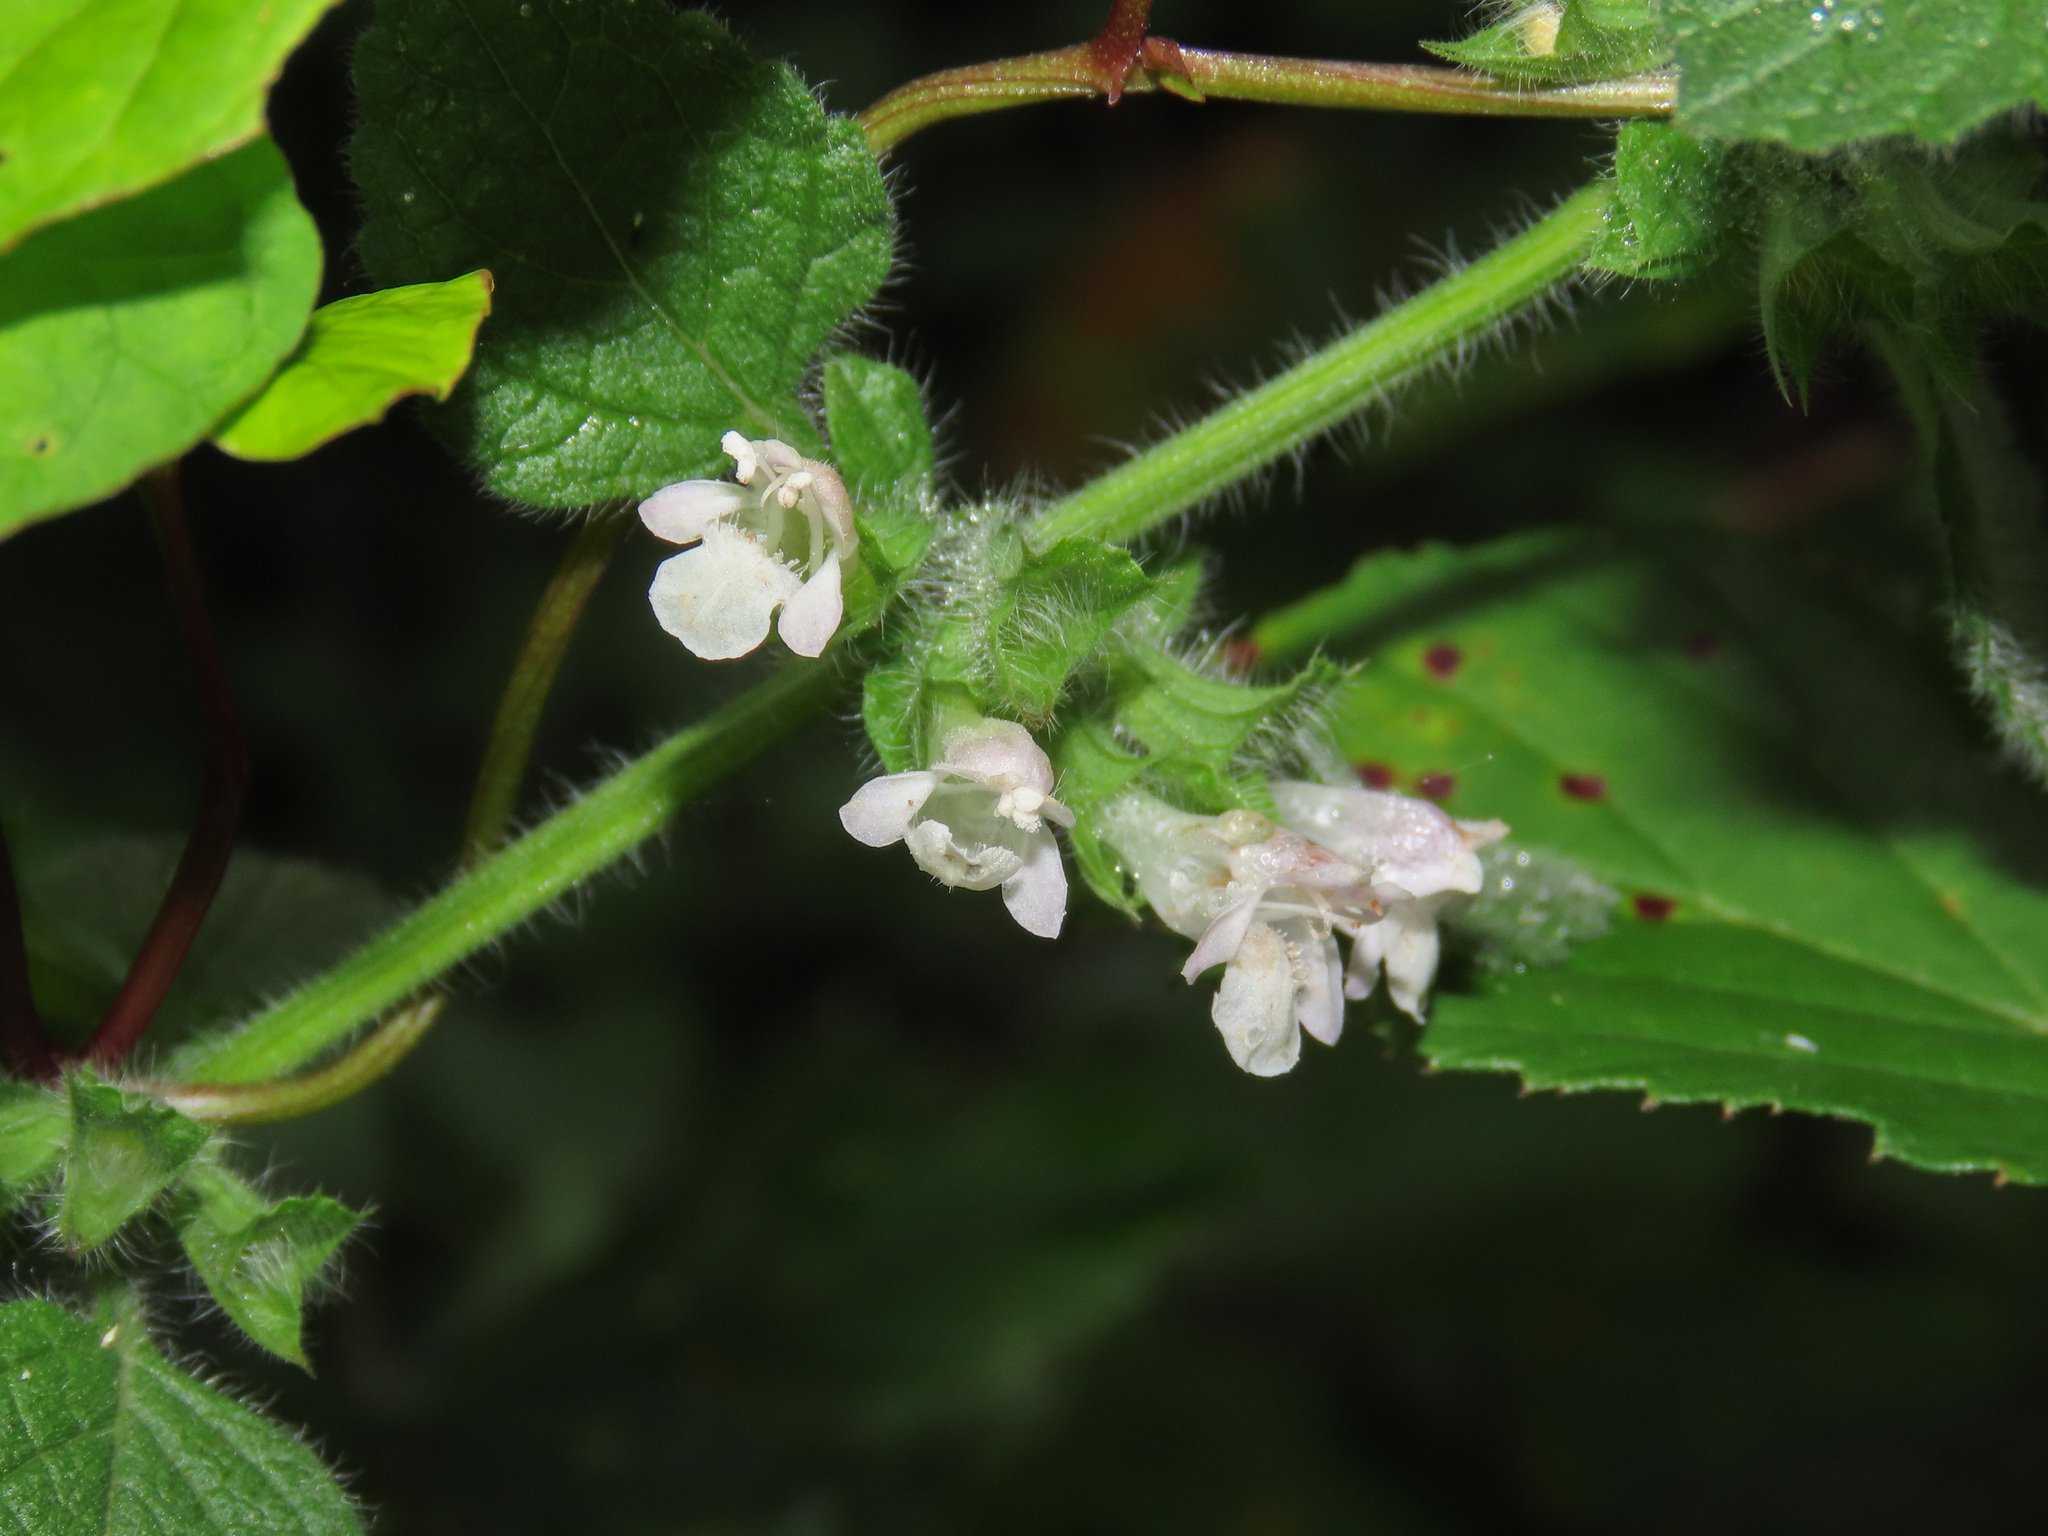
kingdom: Plantae
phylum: Tracheophyta
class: Magnoliopsida
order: Lamiales
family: Lamiaceae
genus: Melissa
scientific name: Melissa officinalis
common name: Balm
